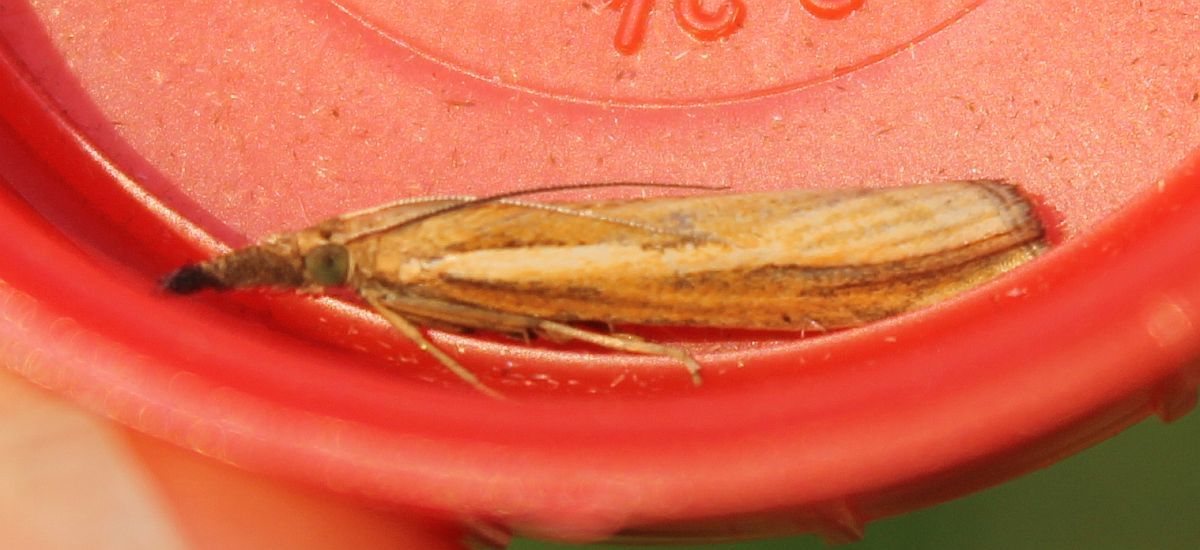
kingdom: Animalia
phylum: Arthropoda
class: Insecta
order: Lepidoptera
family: Crambidae
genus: Agriphila
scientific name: Agriphila tristellus
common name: Common grass-veneer
